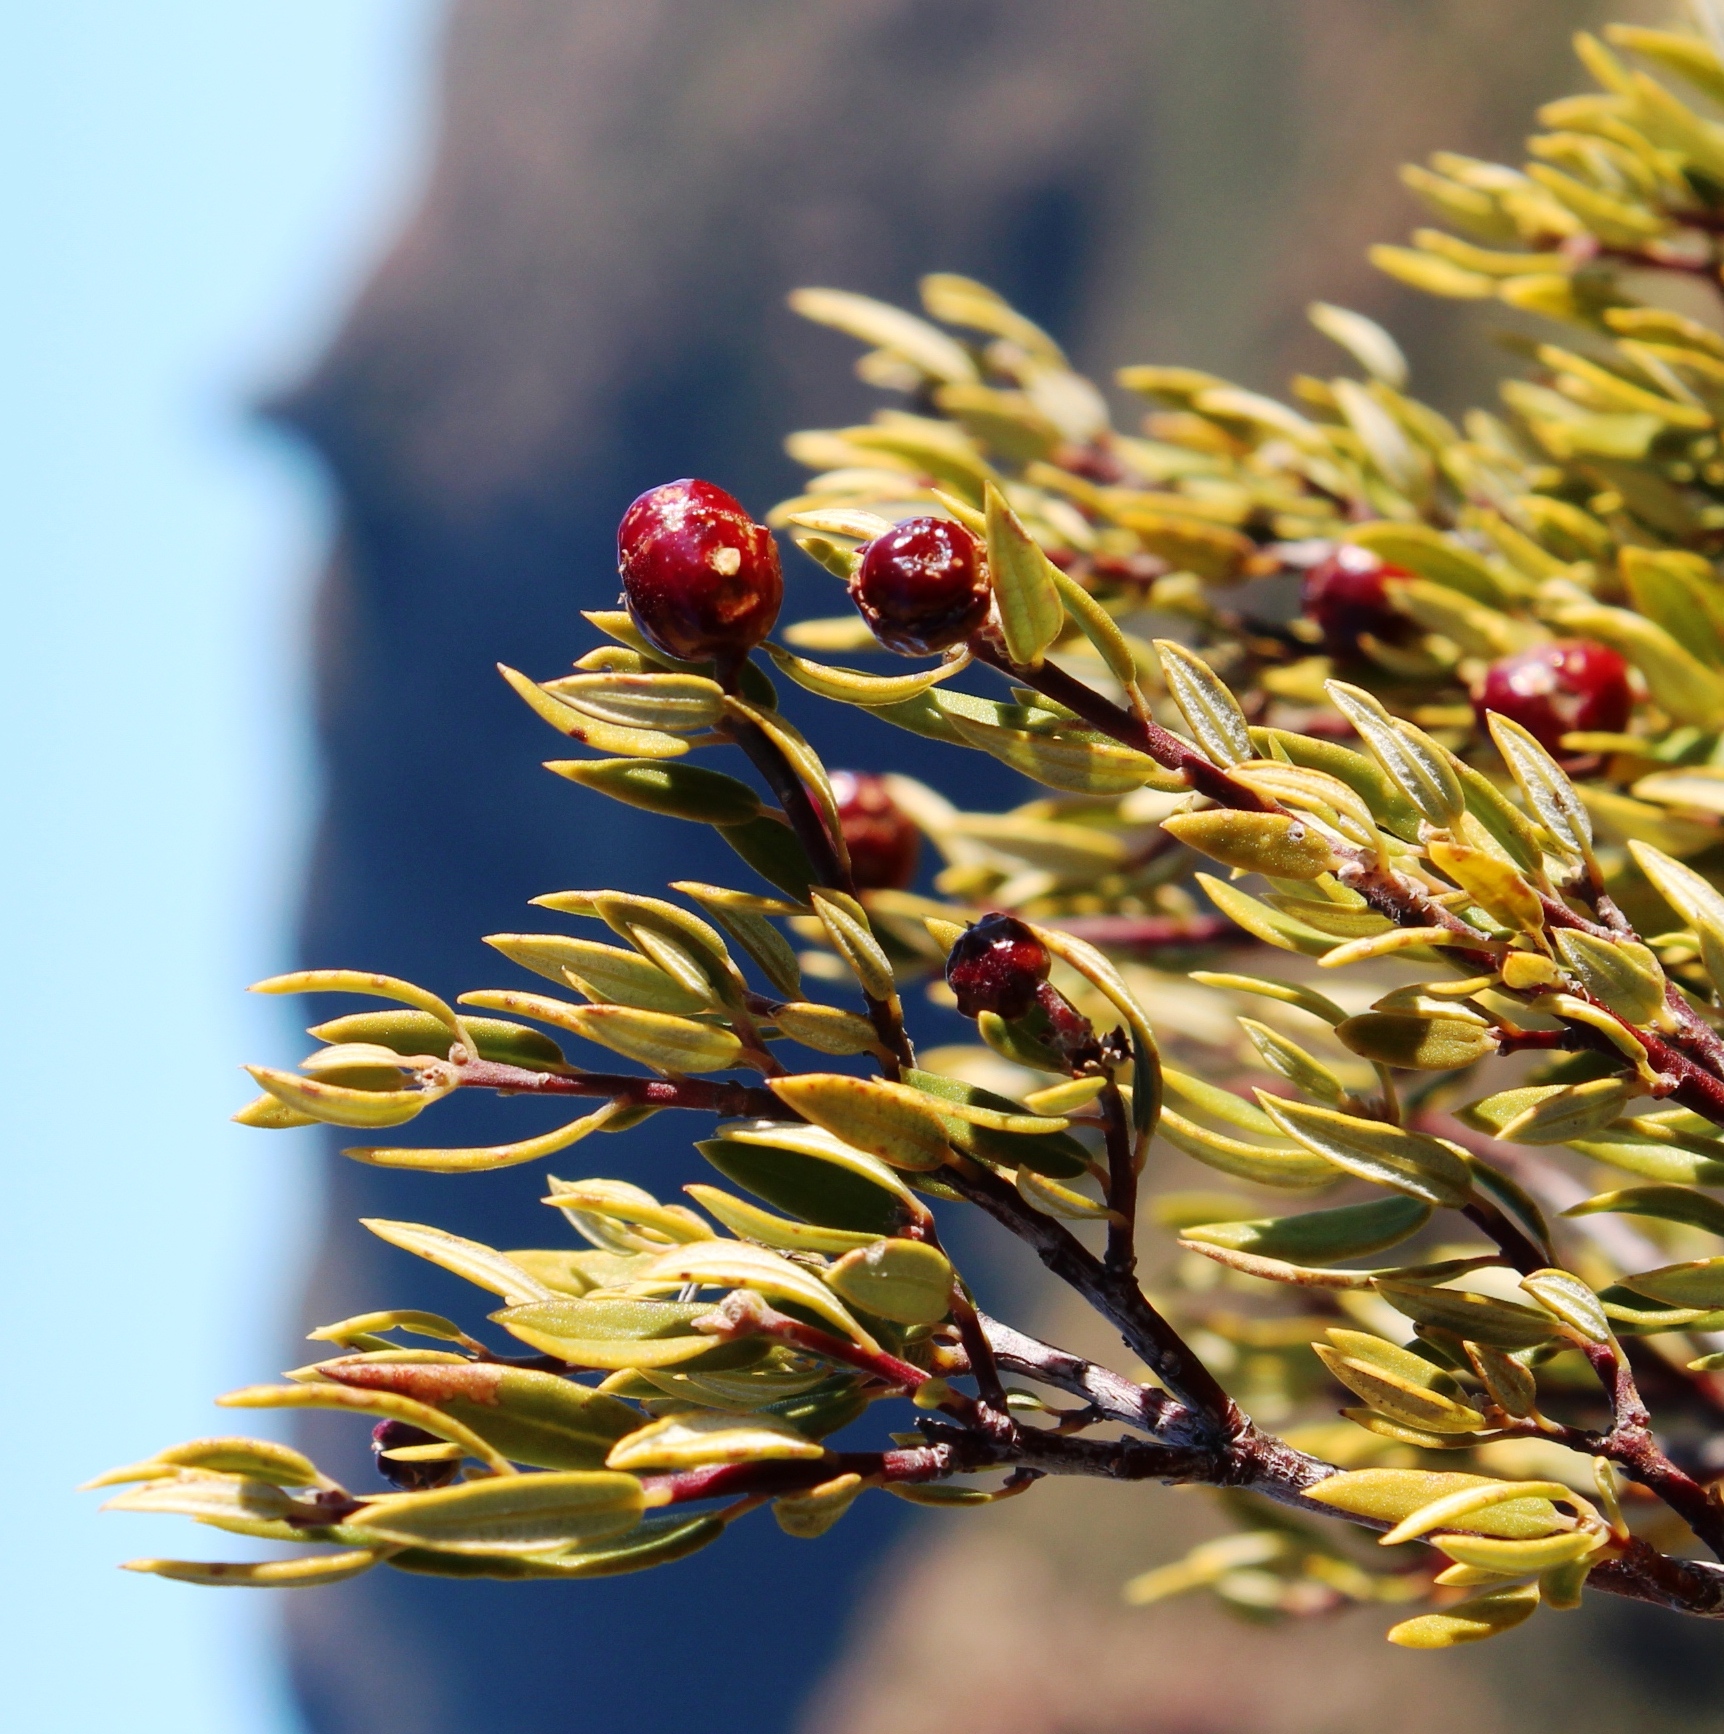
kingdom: Plantae
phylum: Tracheophyta
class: Magnoliopsida
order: Rosales
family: Rhamnaceae
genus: Phylica
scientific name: Phylica oleifolia
